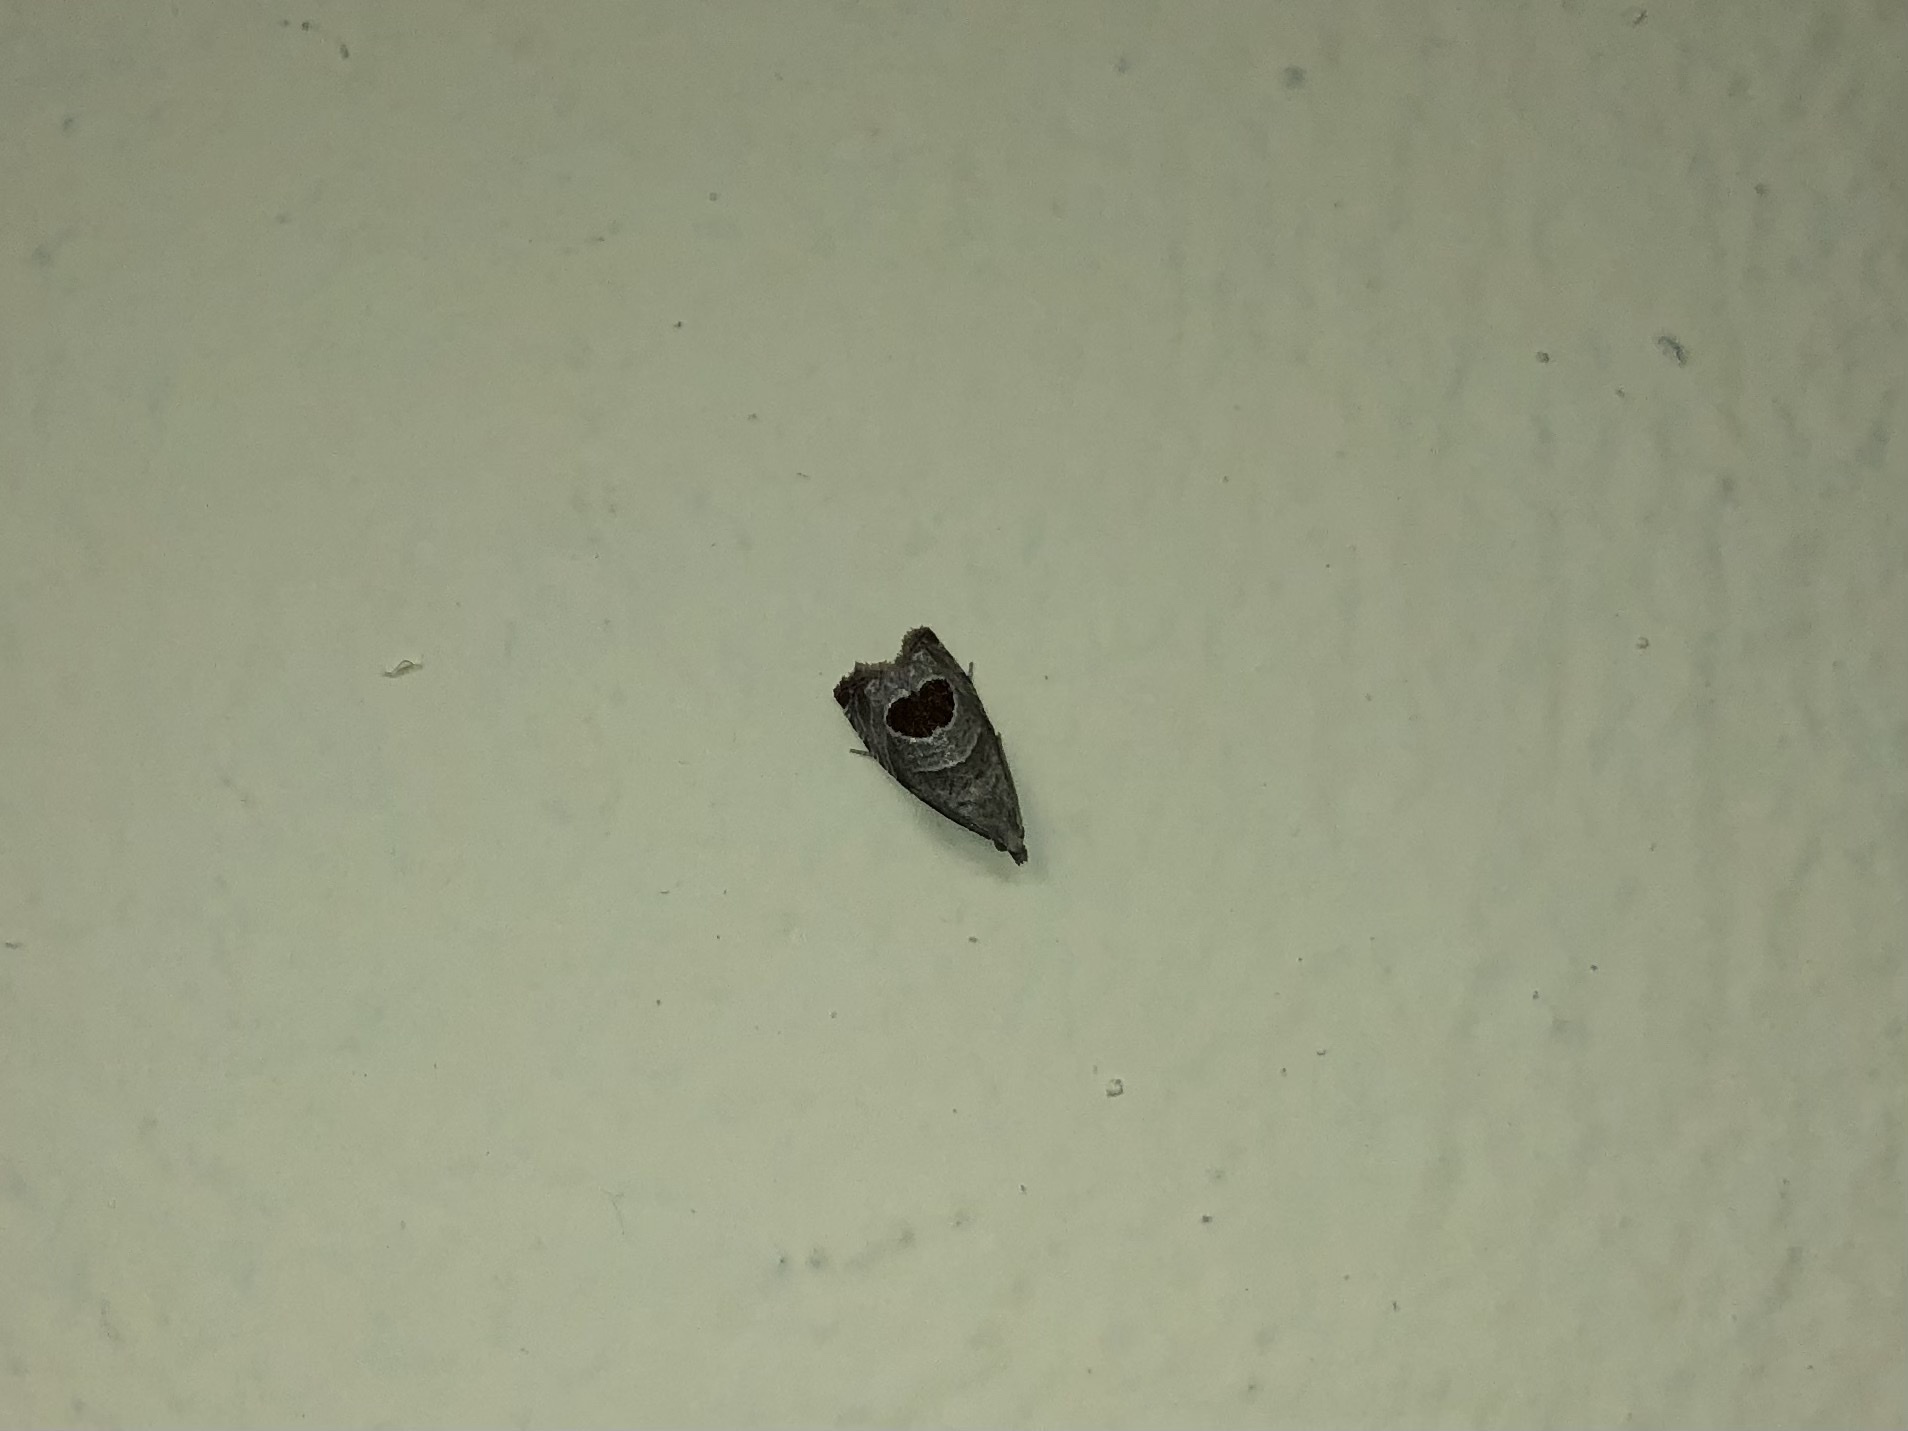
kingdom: Animalia
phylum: Arthropoda
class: Insecta
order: Lepidoptera
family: Tortricidae
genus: Notocelia
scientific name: Notocelia uddmanniana
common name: Bramble shoot moth
